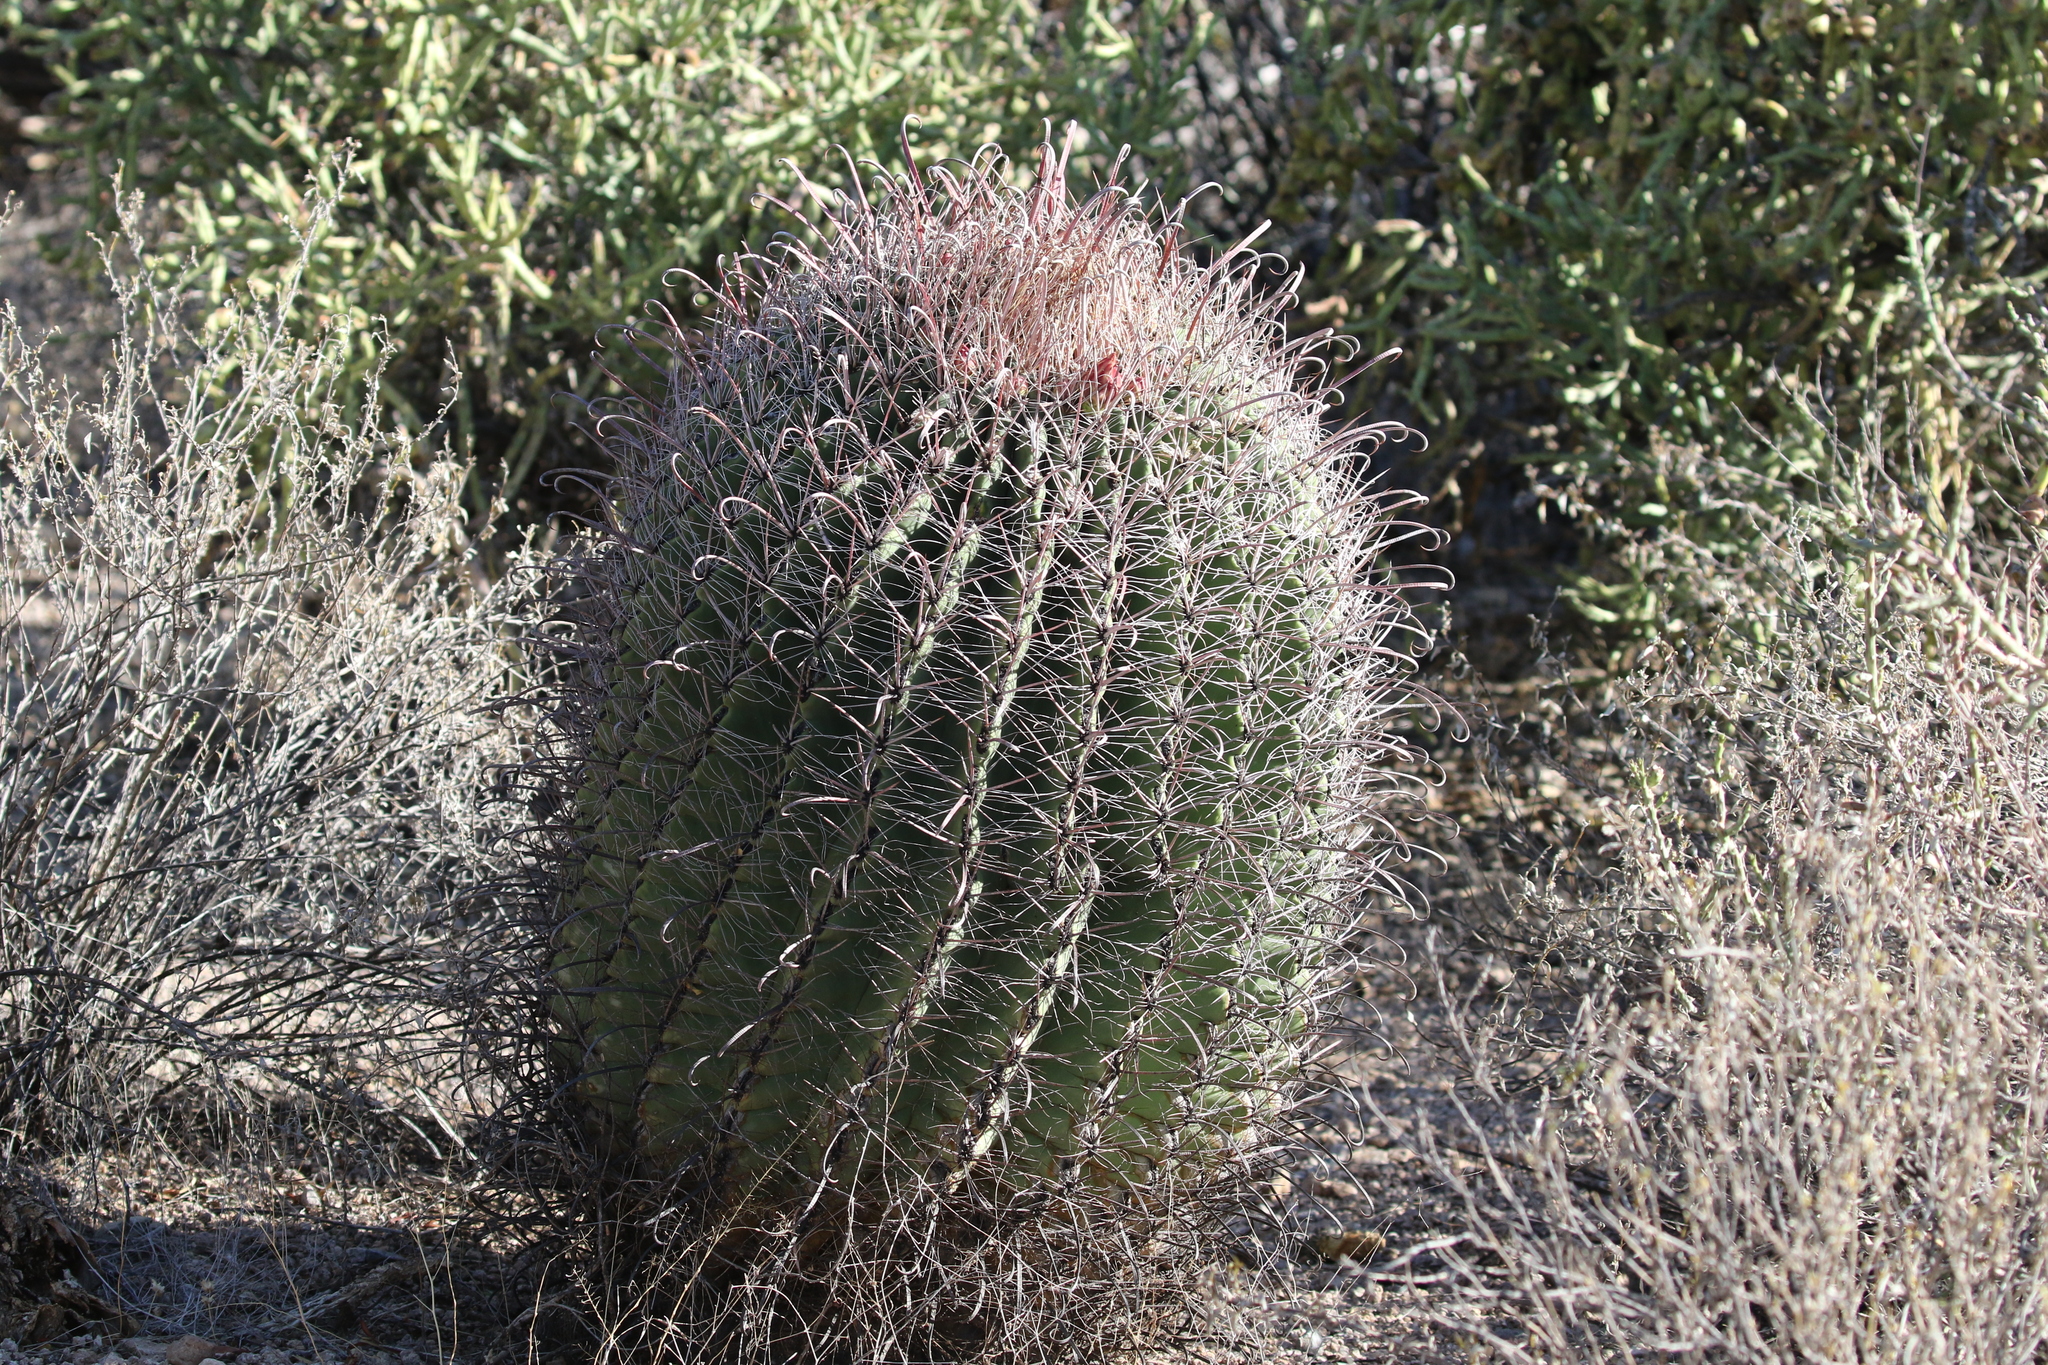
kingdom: Plantae
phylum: Tracheophyta
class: Magnoliopsida
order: Caryophyllales
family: Cactaceae
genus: Ferocactus
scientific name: Ferocactus wislizeni
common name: Candy barrel cactus
